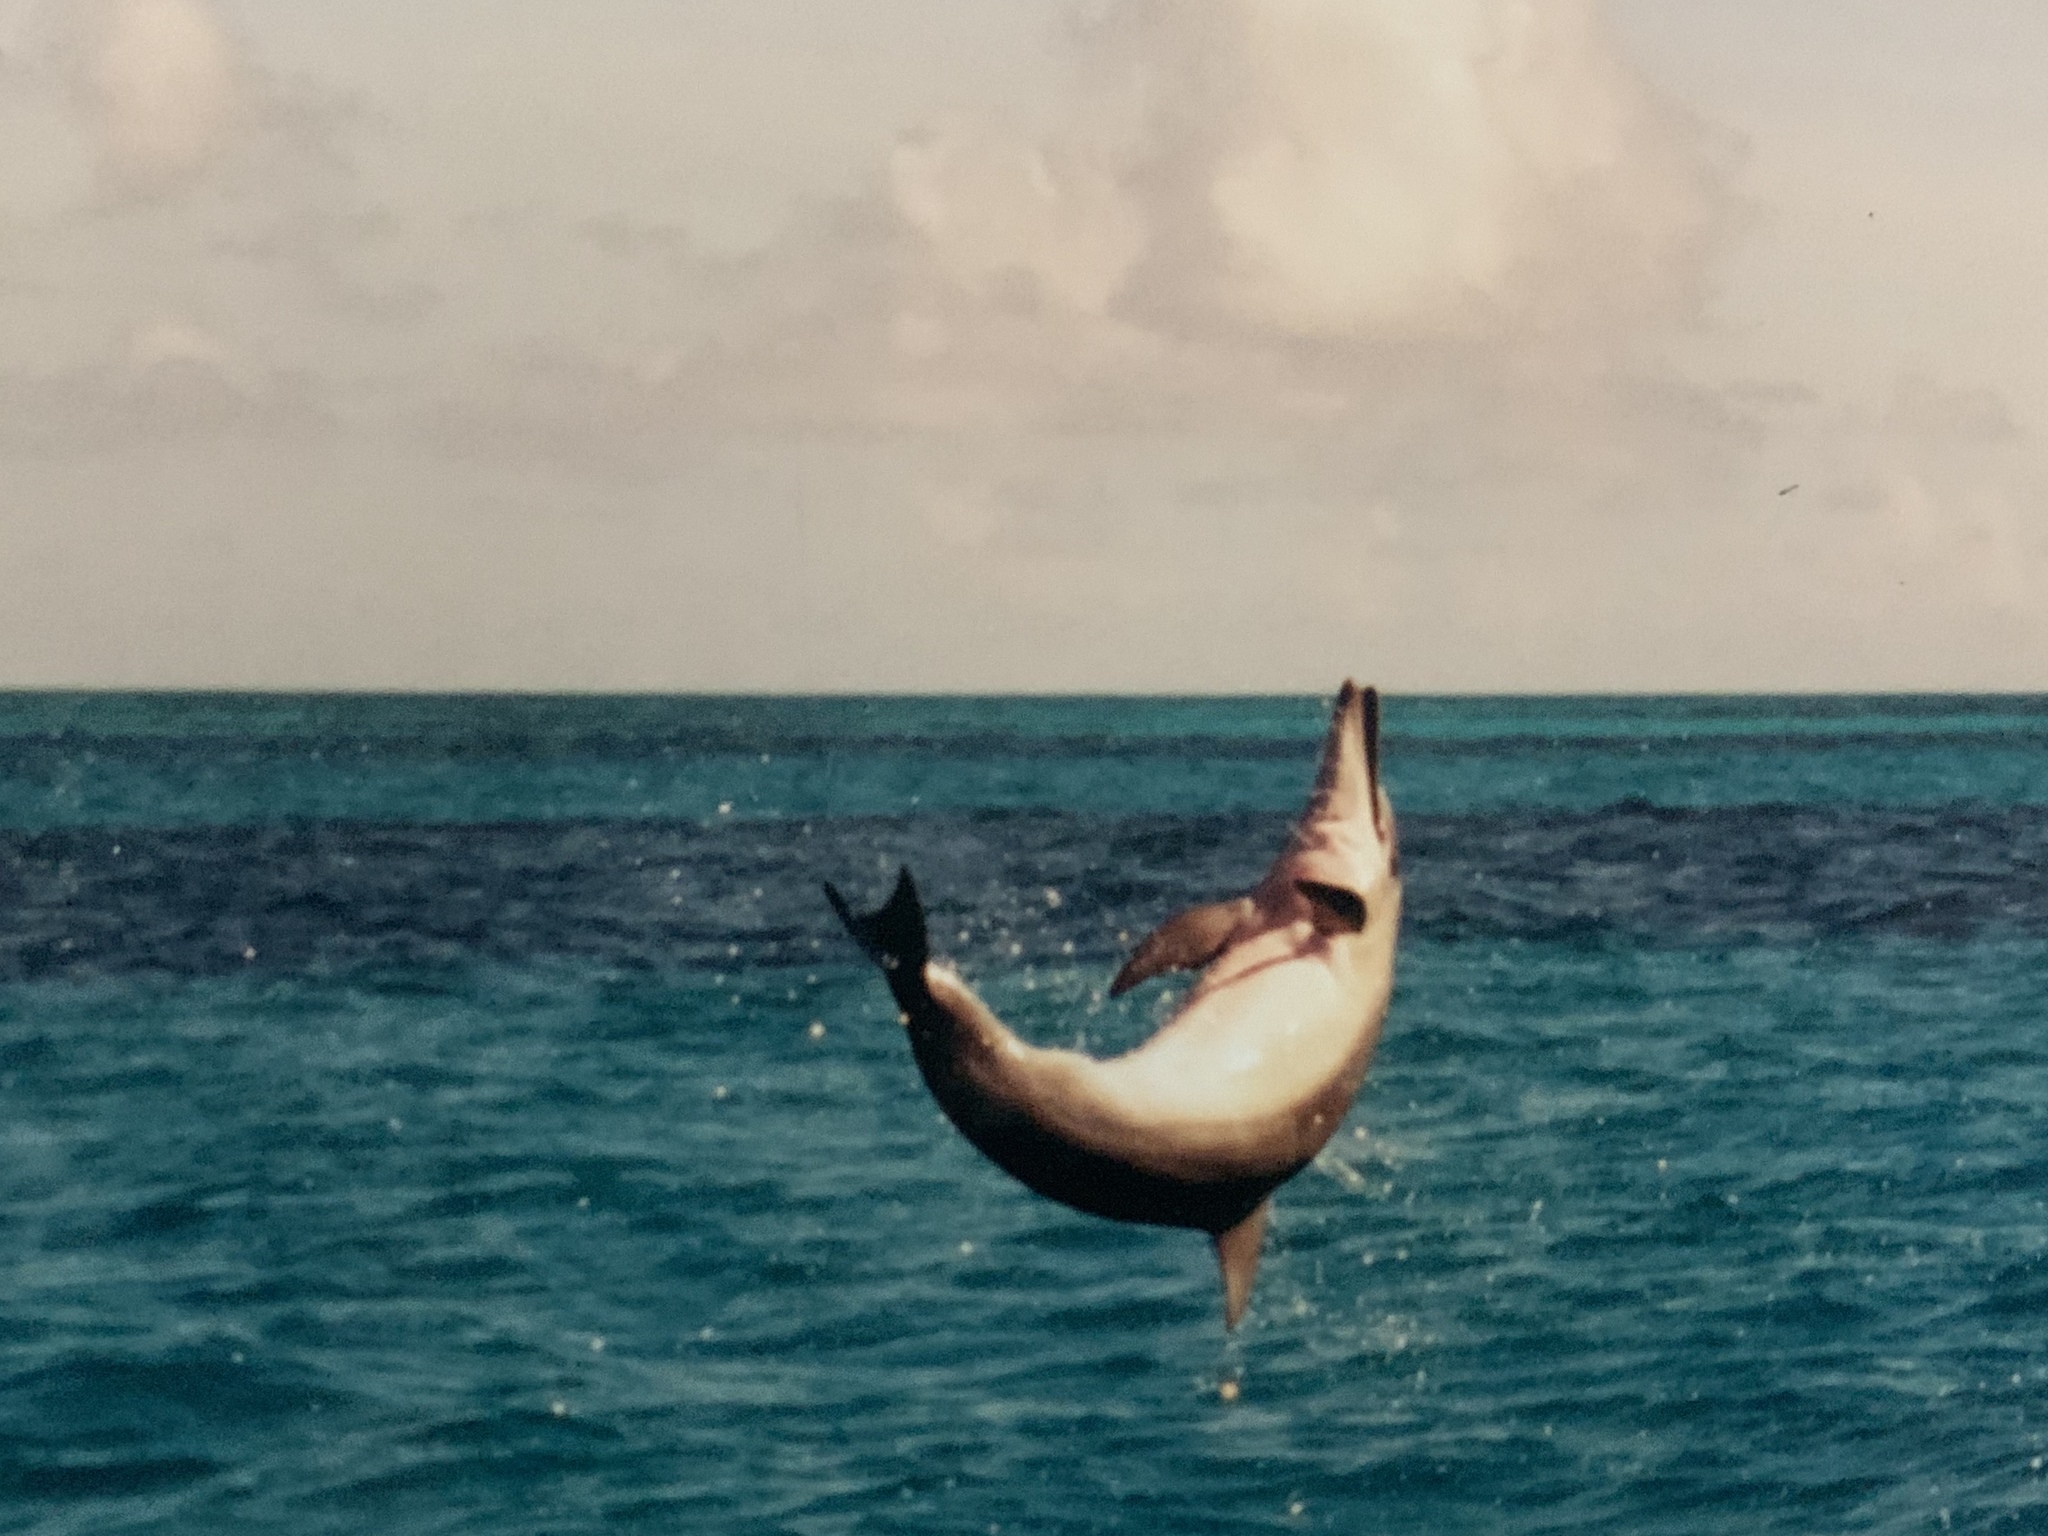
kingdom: Animalia
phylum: Chordata
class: Mammalia
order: Cetacea
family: Delphinidae
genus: Stenella
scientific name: Stenella longirostris
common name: Spinner dolphin
